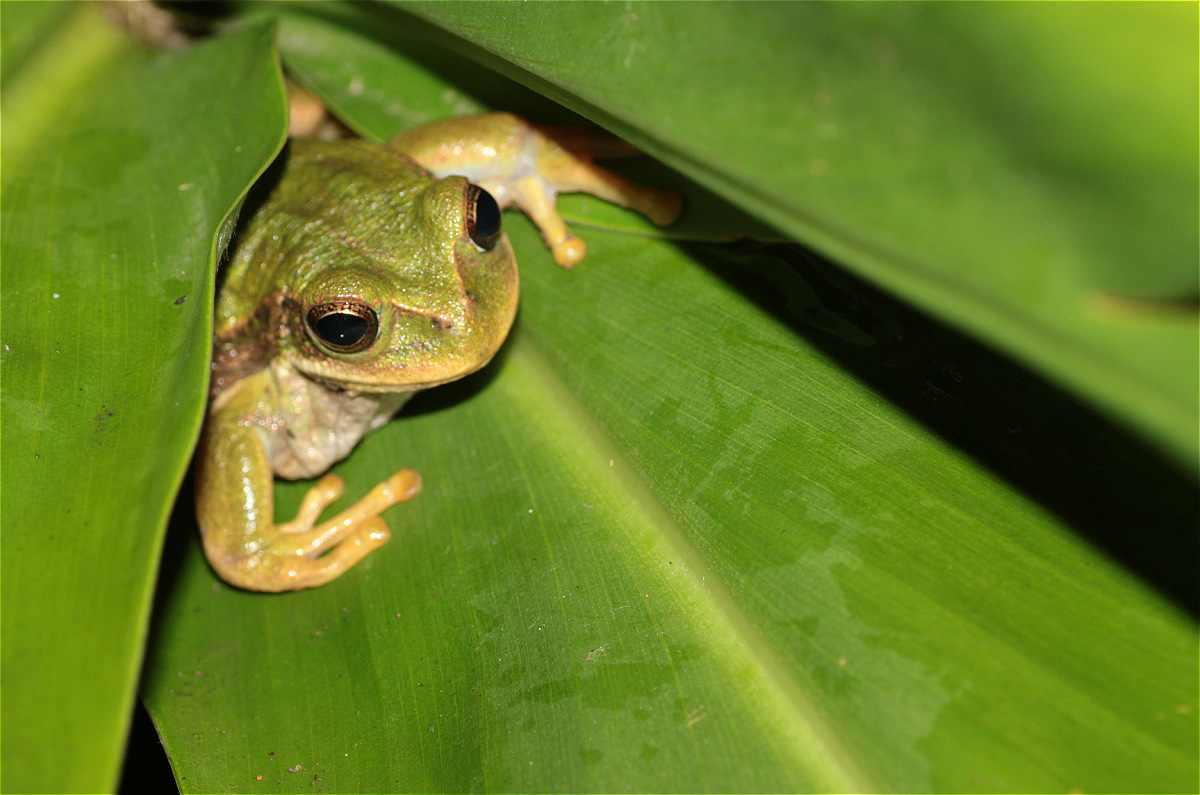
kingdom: Animalia
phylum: Chordata
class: Amphibia
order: Anura
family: Hemiphractidae
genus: Gastrotheca
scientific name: Gastrotheca cuencana
